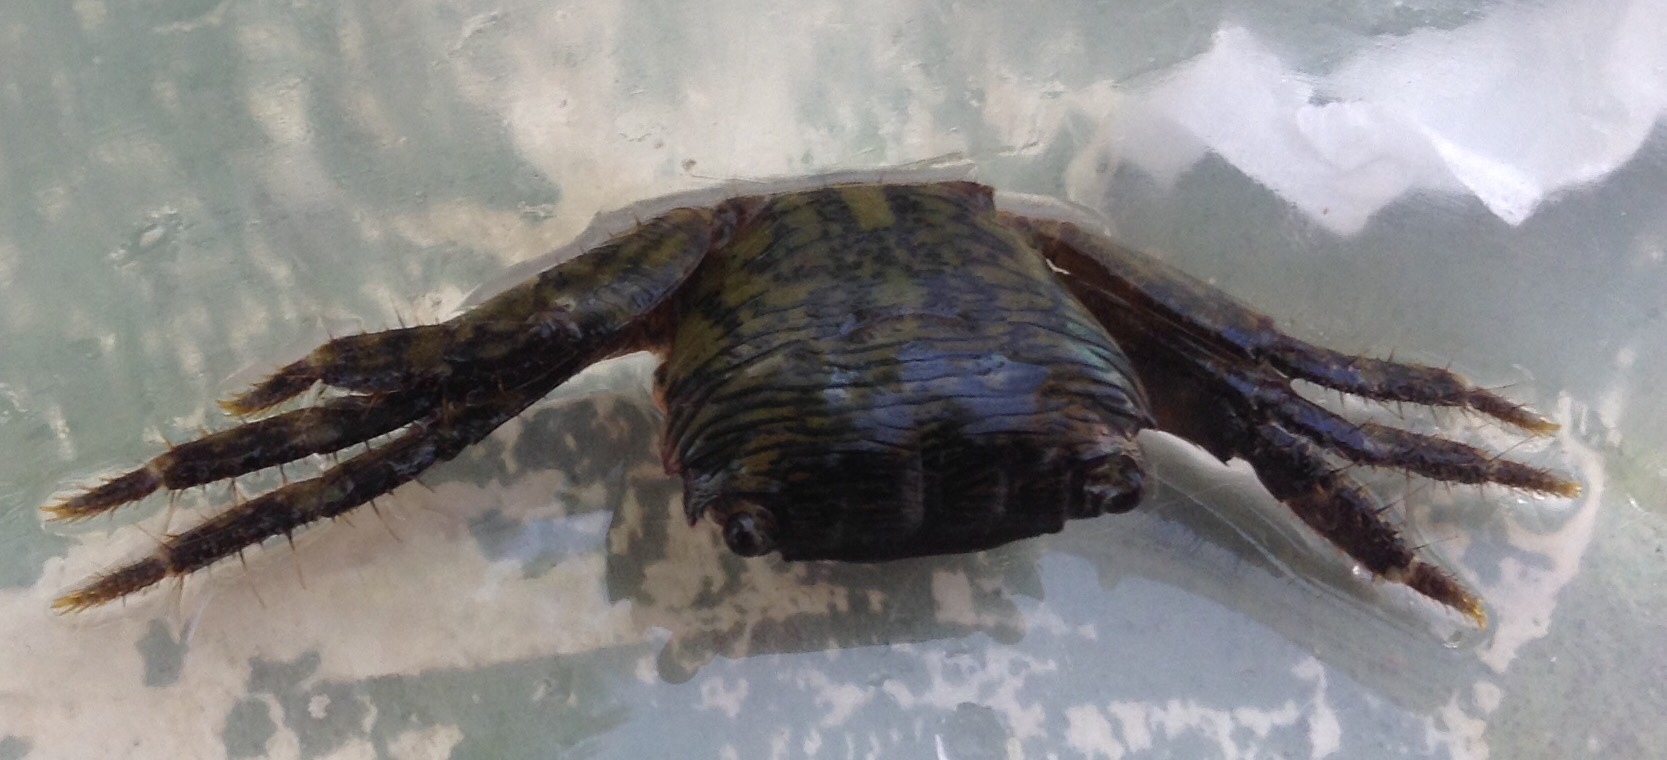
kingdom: Animalia
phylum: Arthropoda
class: Malacostraca
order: Decapoda
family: Grapsidae
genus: Pachygrapsus
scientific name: Pachygrapsus transversus
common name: Mottled shore crab
